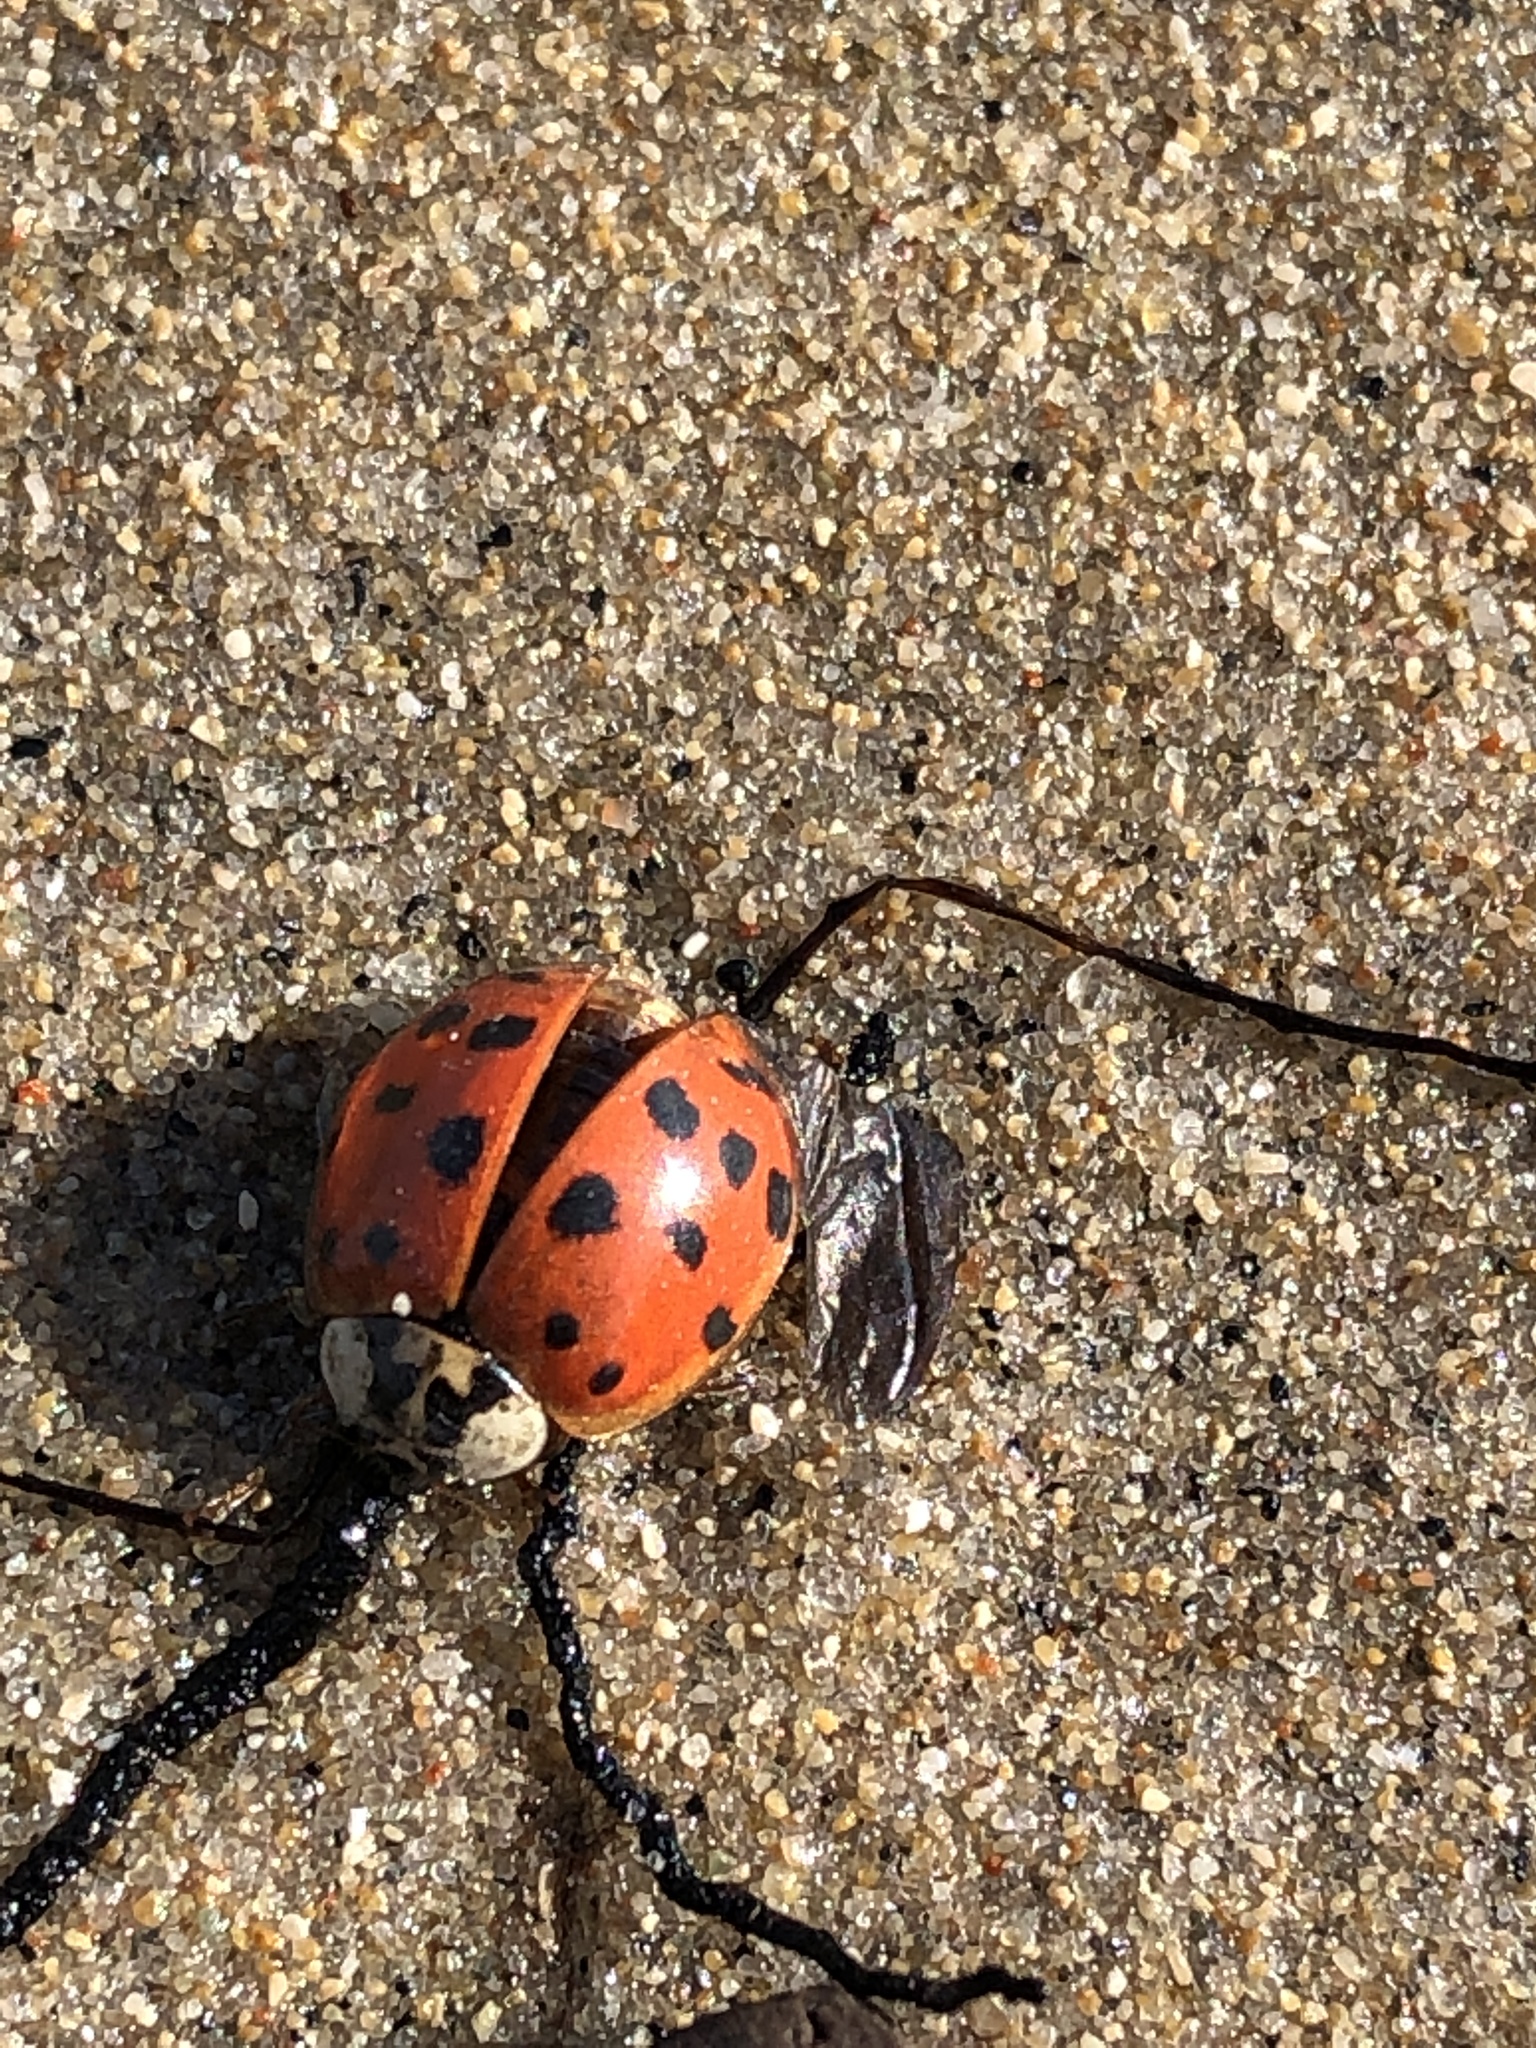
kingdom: Animalia
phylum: Arthropoda
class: Insecta
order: Coleoptera
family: Coccinellidae
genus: Harmonia
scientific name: Harmonia axyridis
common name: Harlequin ladybird
